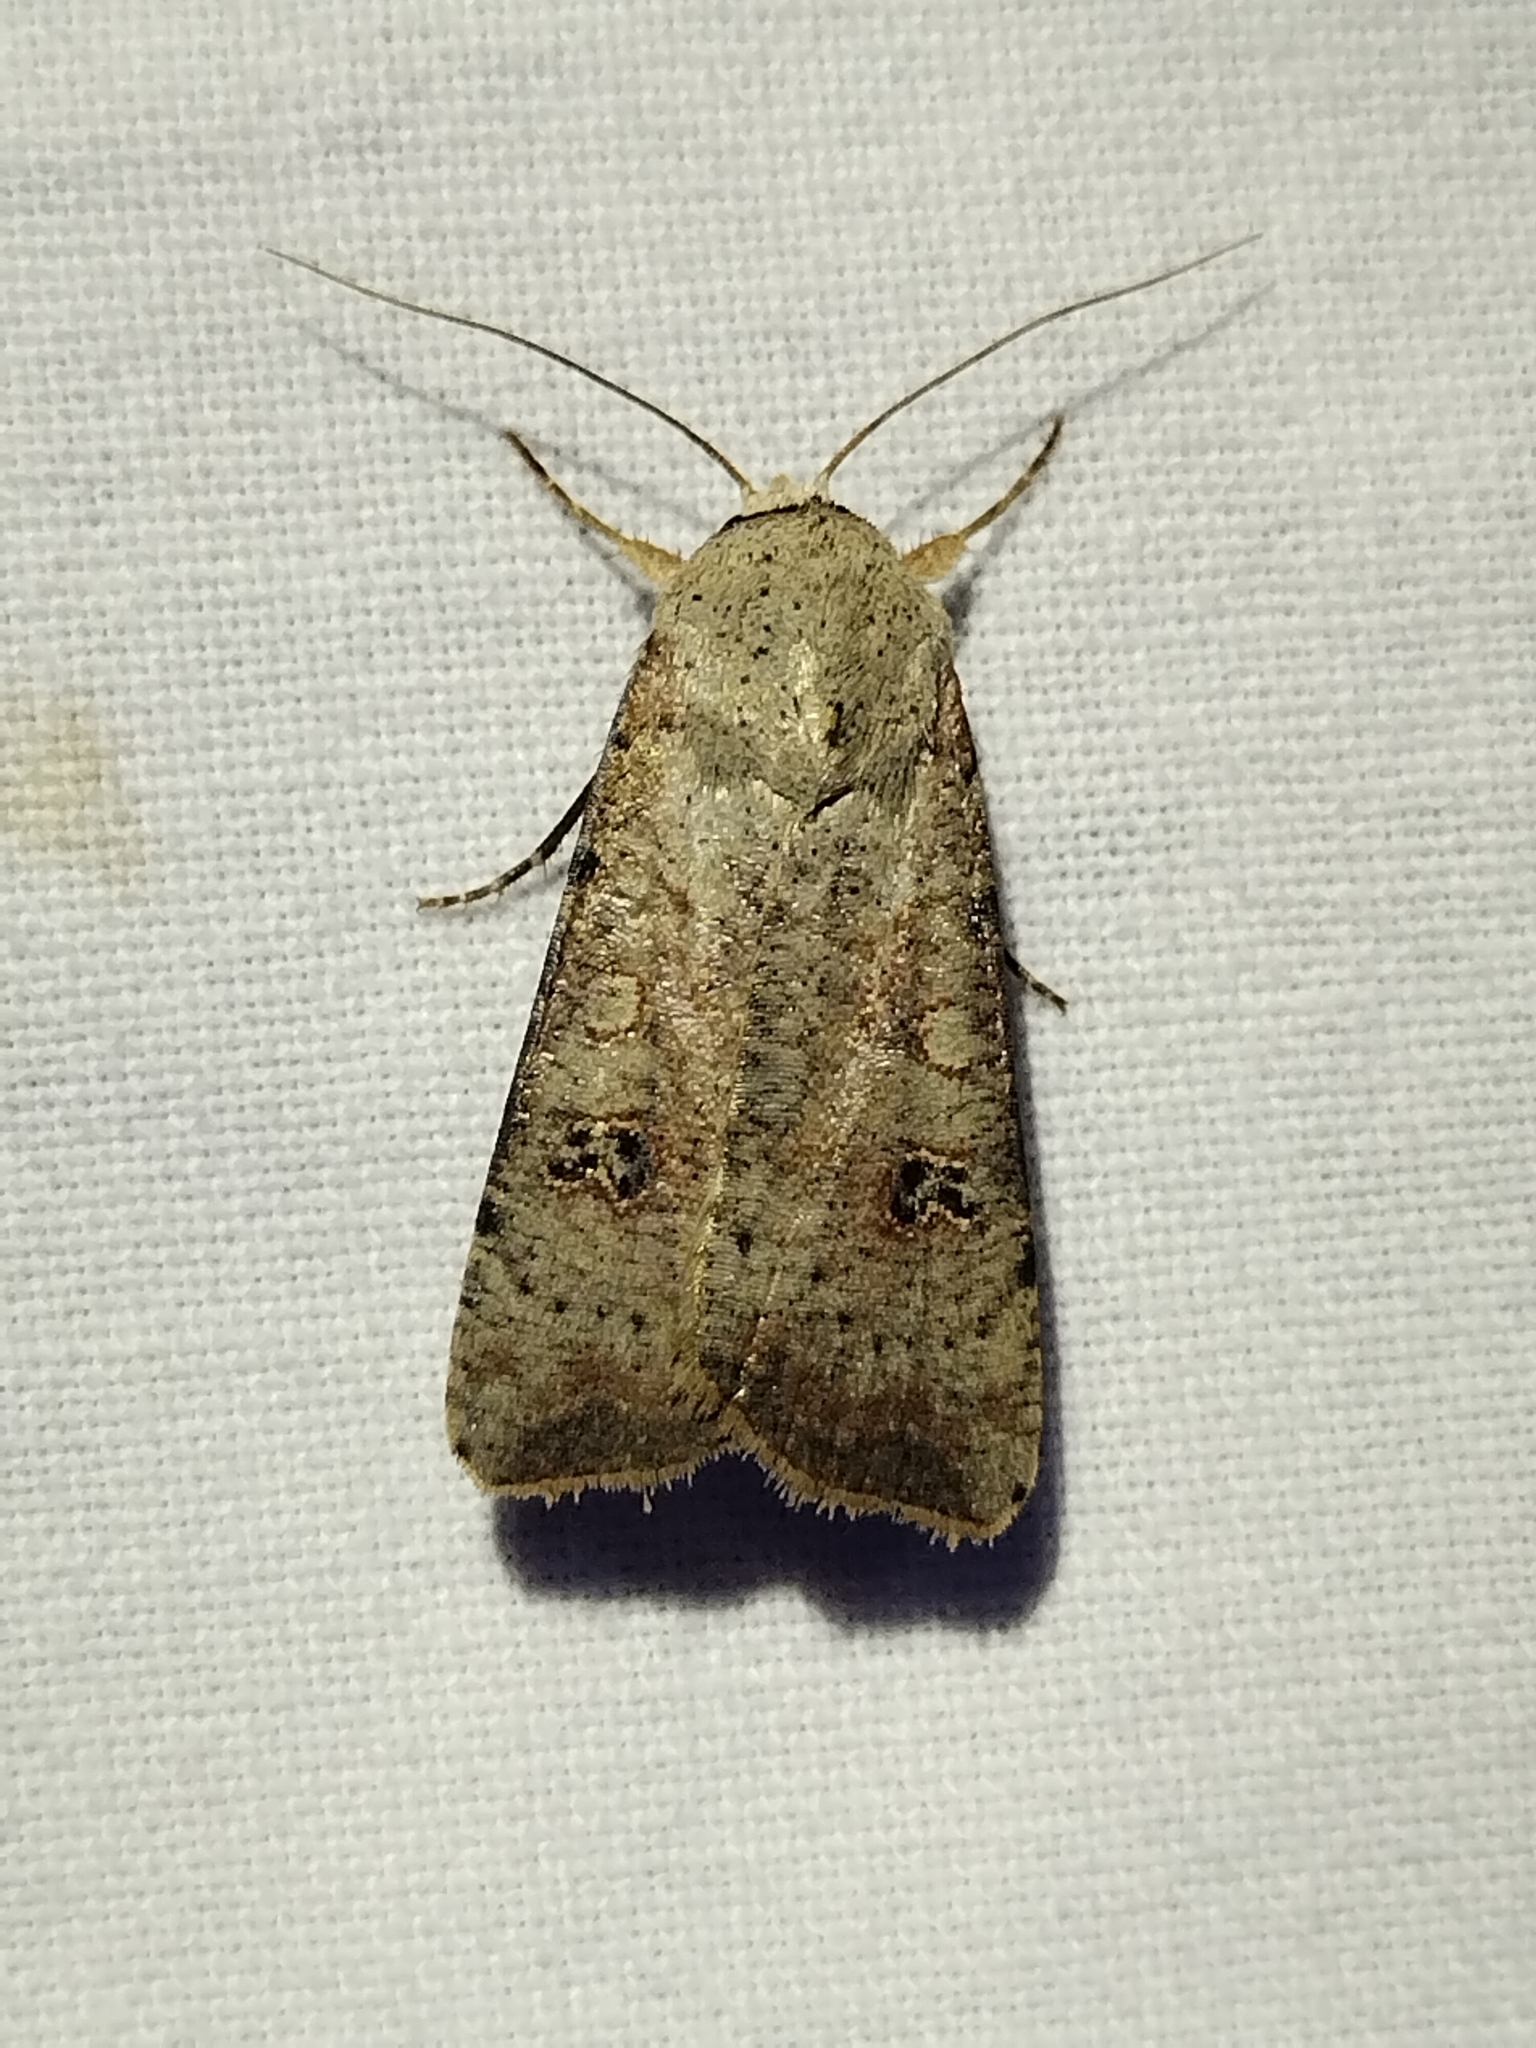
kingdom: Animalia
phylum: Arthropoda
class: Insecta
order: Lepidoptera
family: Noctuidae
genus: Anicla
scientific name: Anicla infecta
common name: Green cutworm
